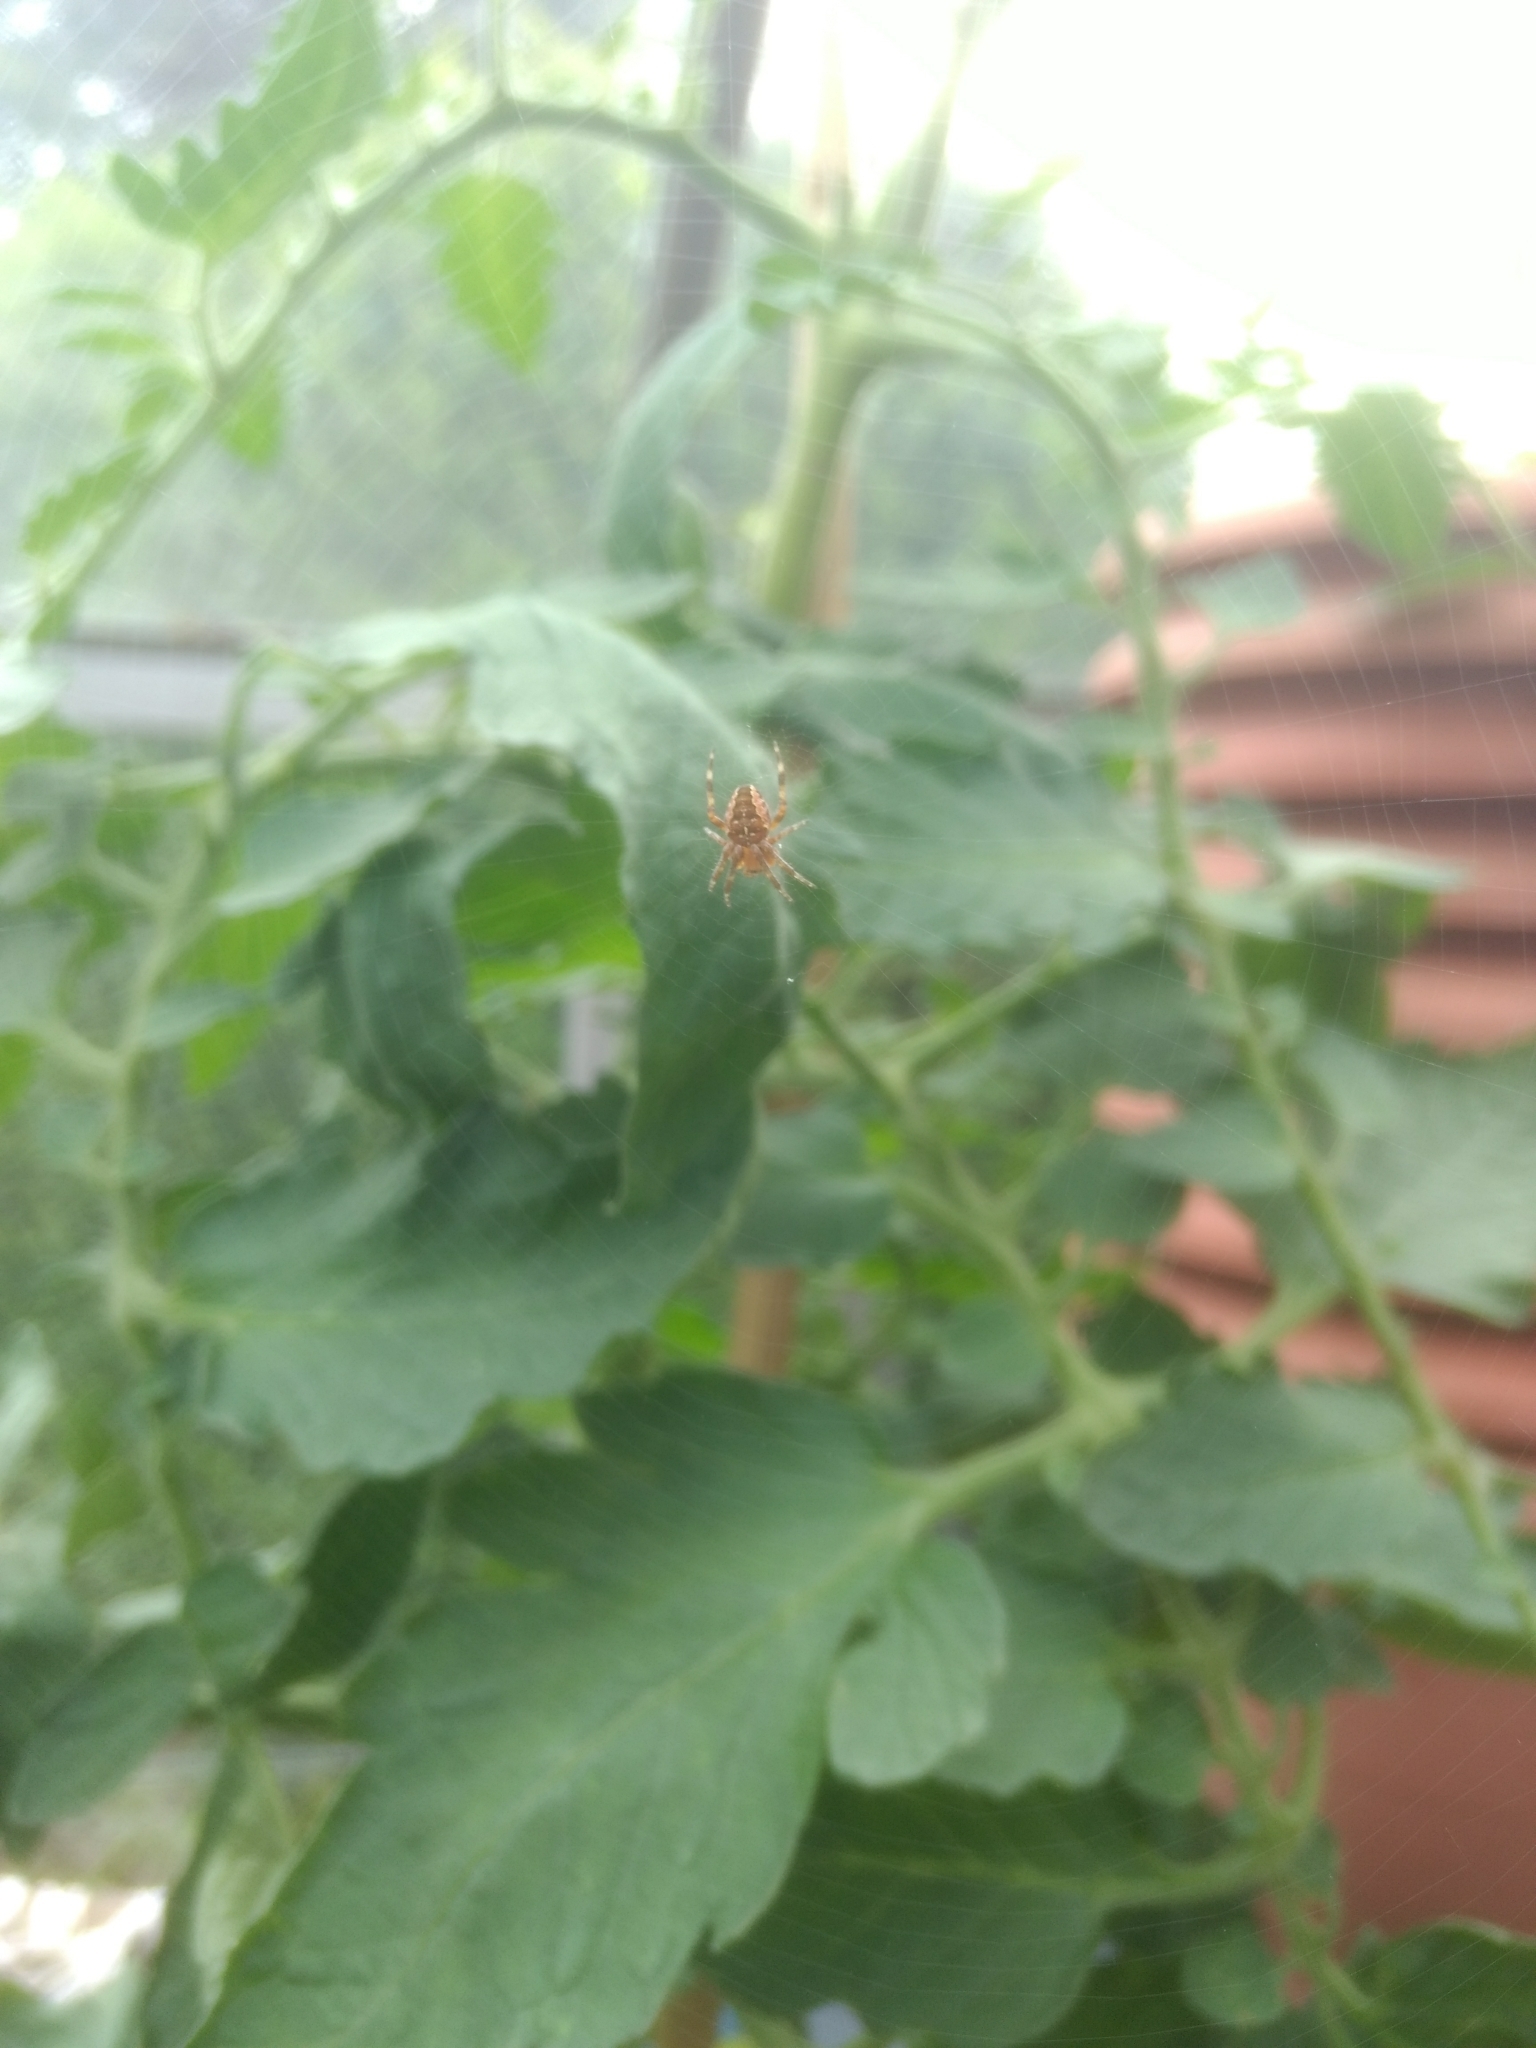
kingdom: Animalia
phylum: Arthropoda
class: Arachnida
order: Araneae
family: Araneidae
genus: Araneus
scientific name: Araneus diadematus
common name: Cross orbweaver
